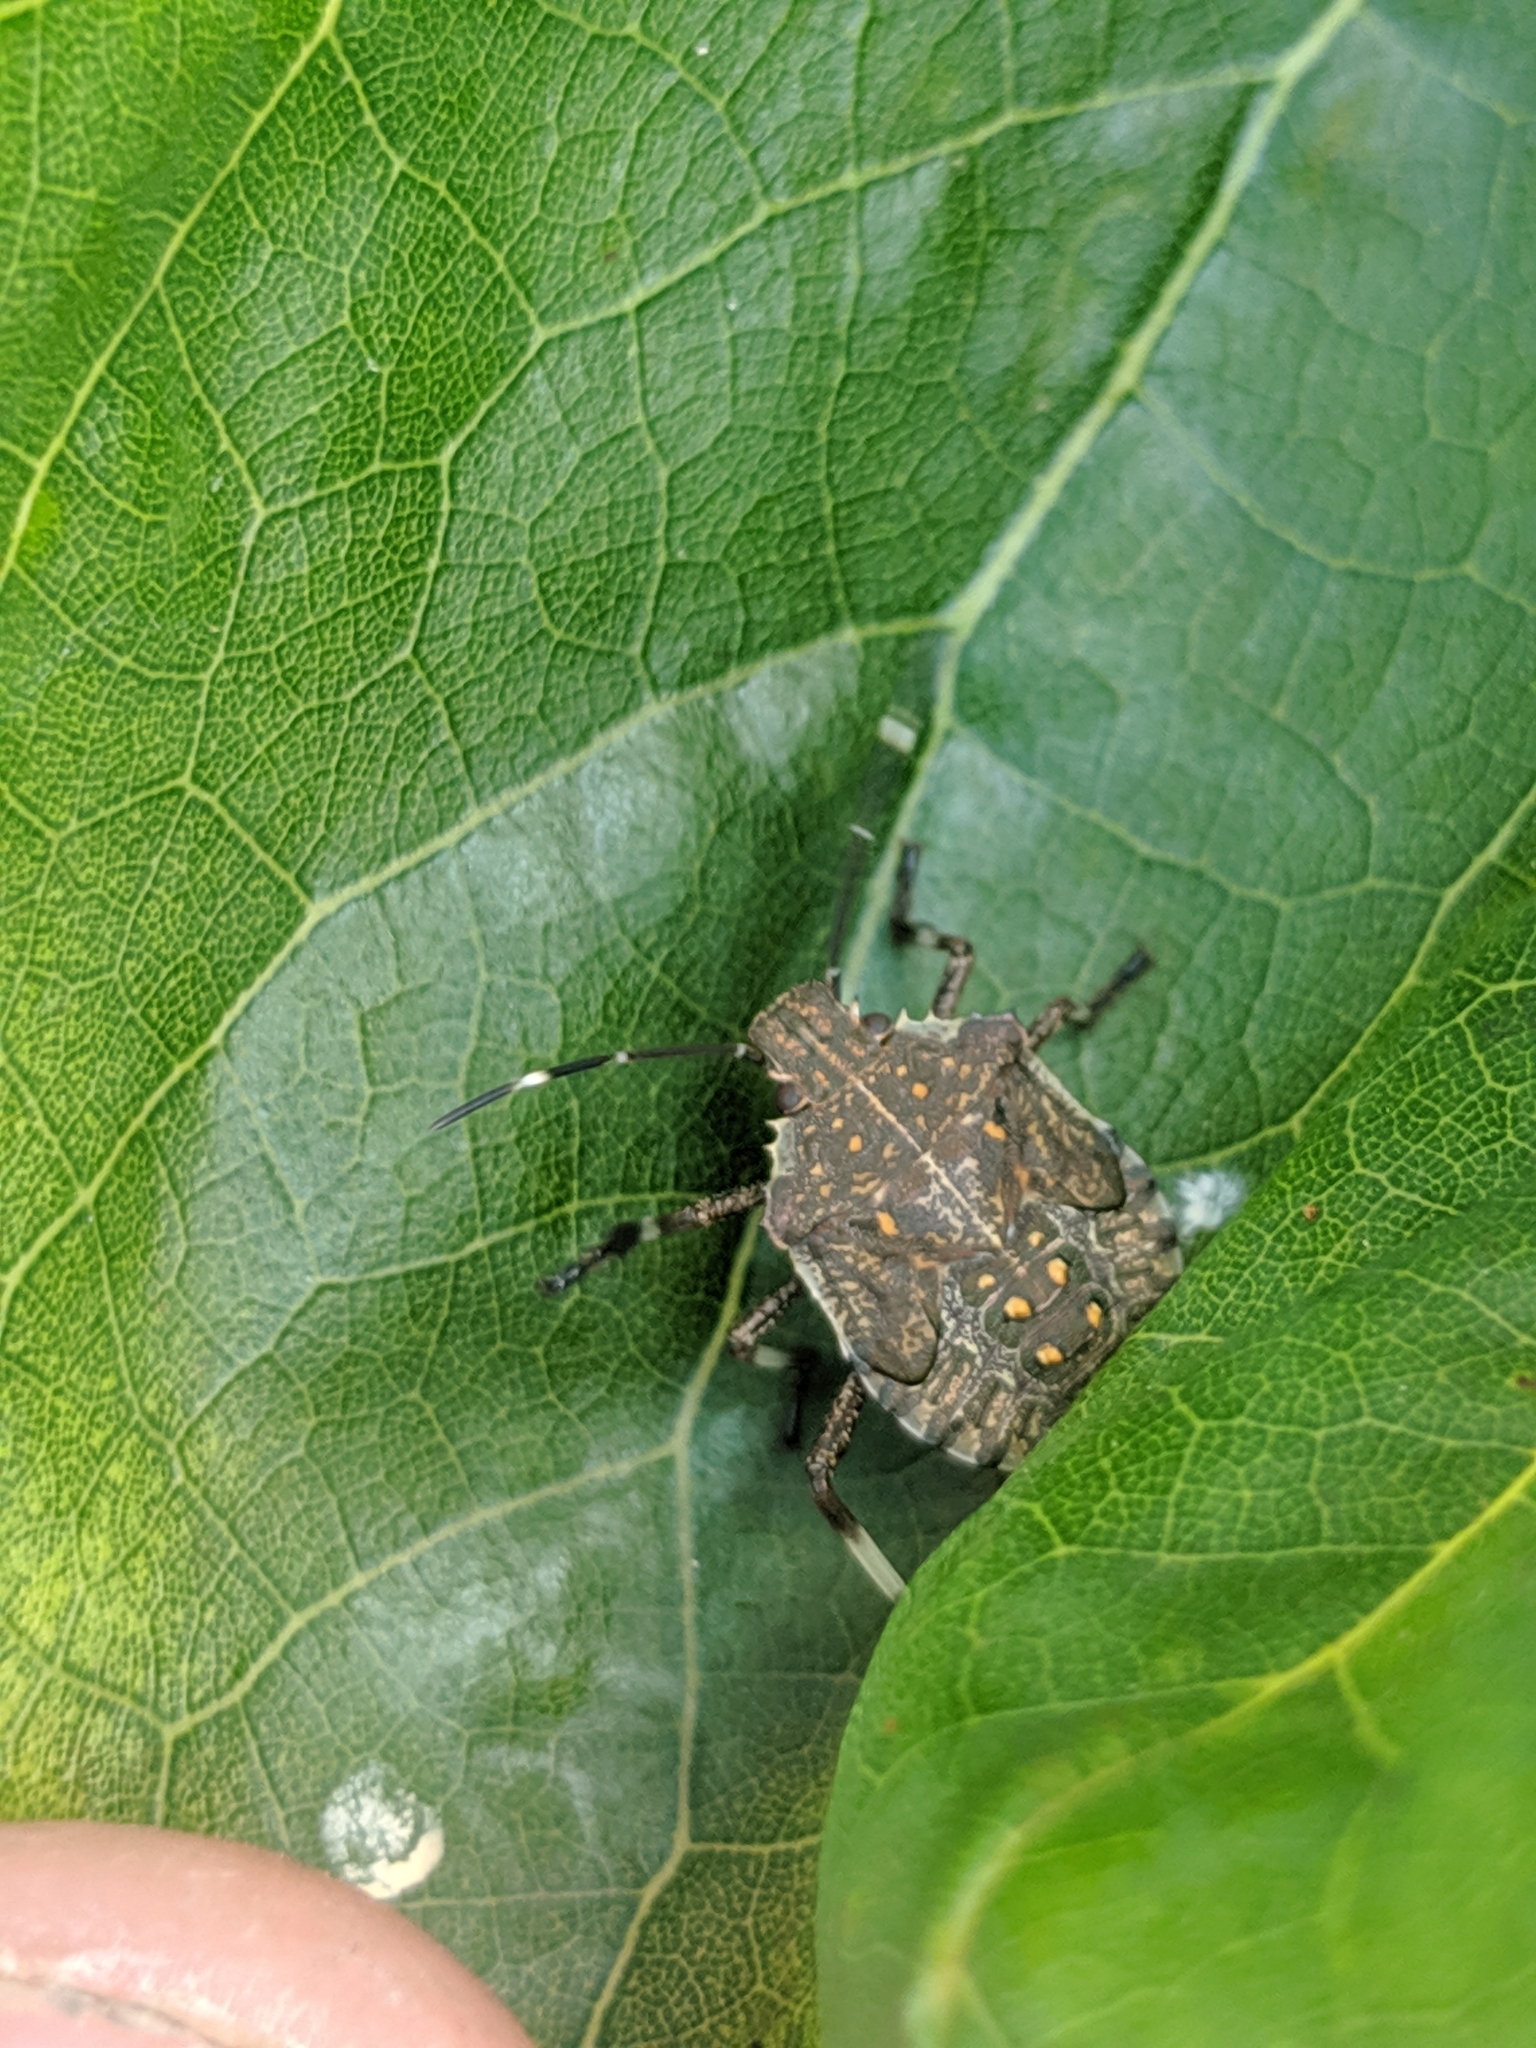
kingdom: Animalia
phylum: Arthropoda
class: Insecta
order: Hemiptera
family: Pentatomidae
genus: Halyomorpha
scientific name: Halyomorpha halys
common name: Brown marmorated stink bug
